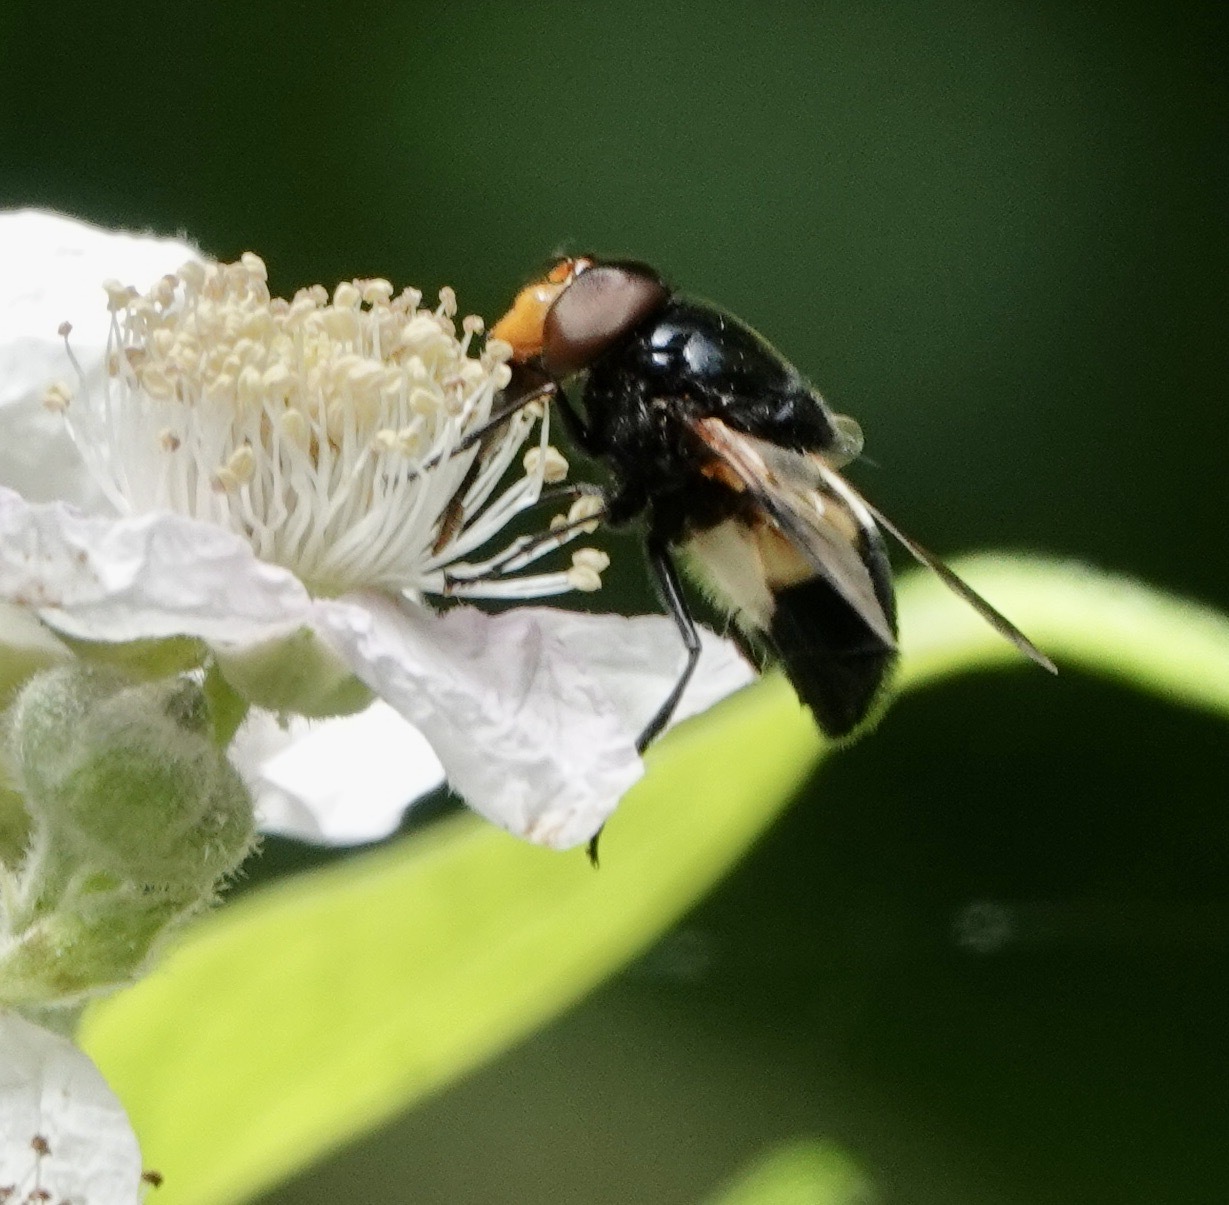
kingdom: Animalia
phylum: Arthropoda
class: Insecta
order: Diptera
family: Syrphidae
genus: Volucella
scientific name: Volucella pellucens
